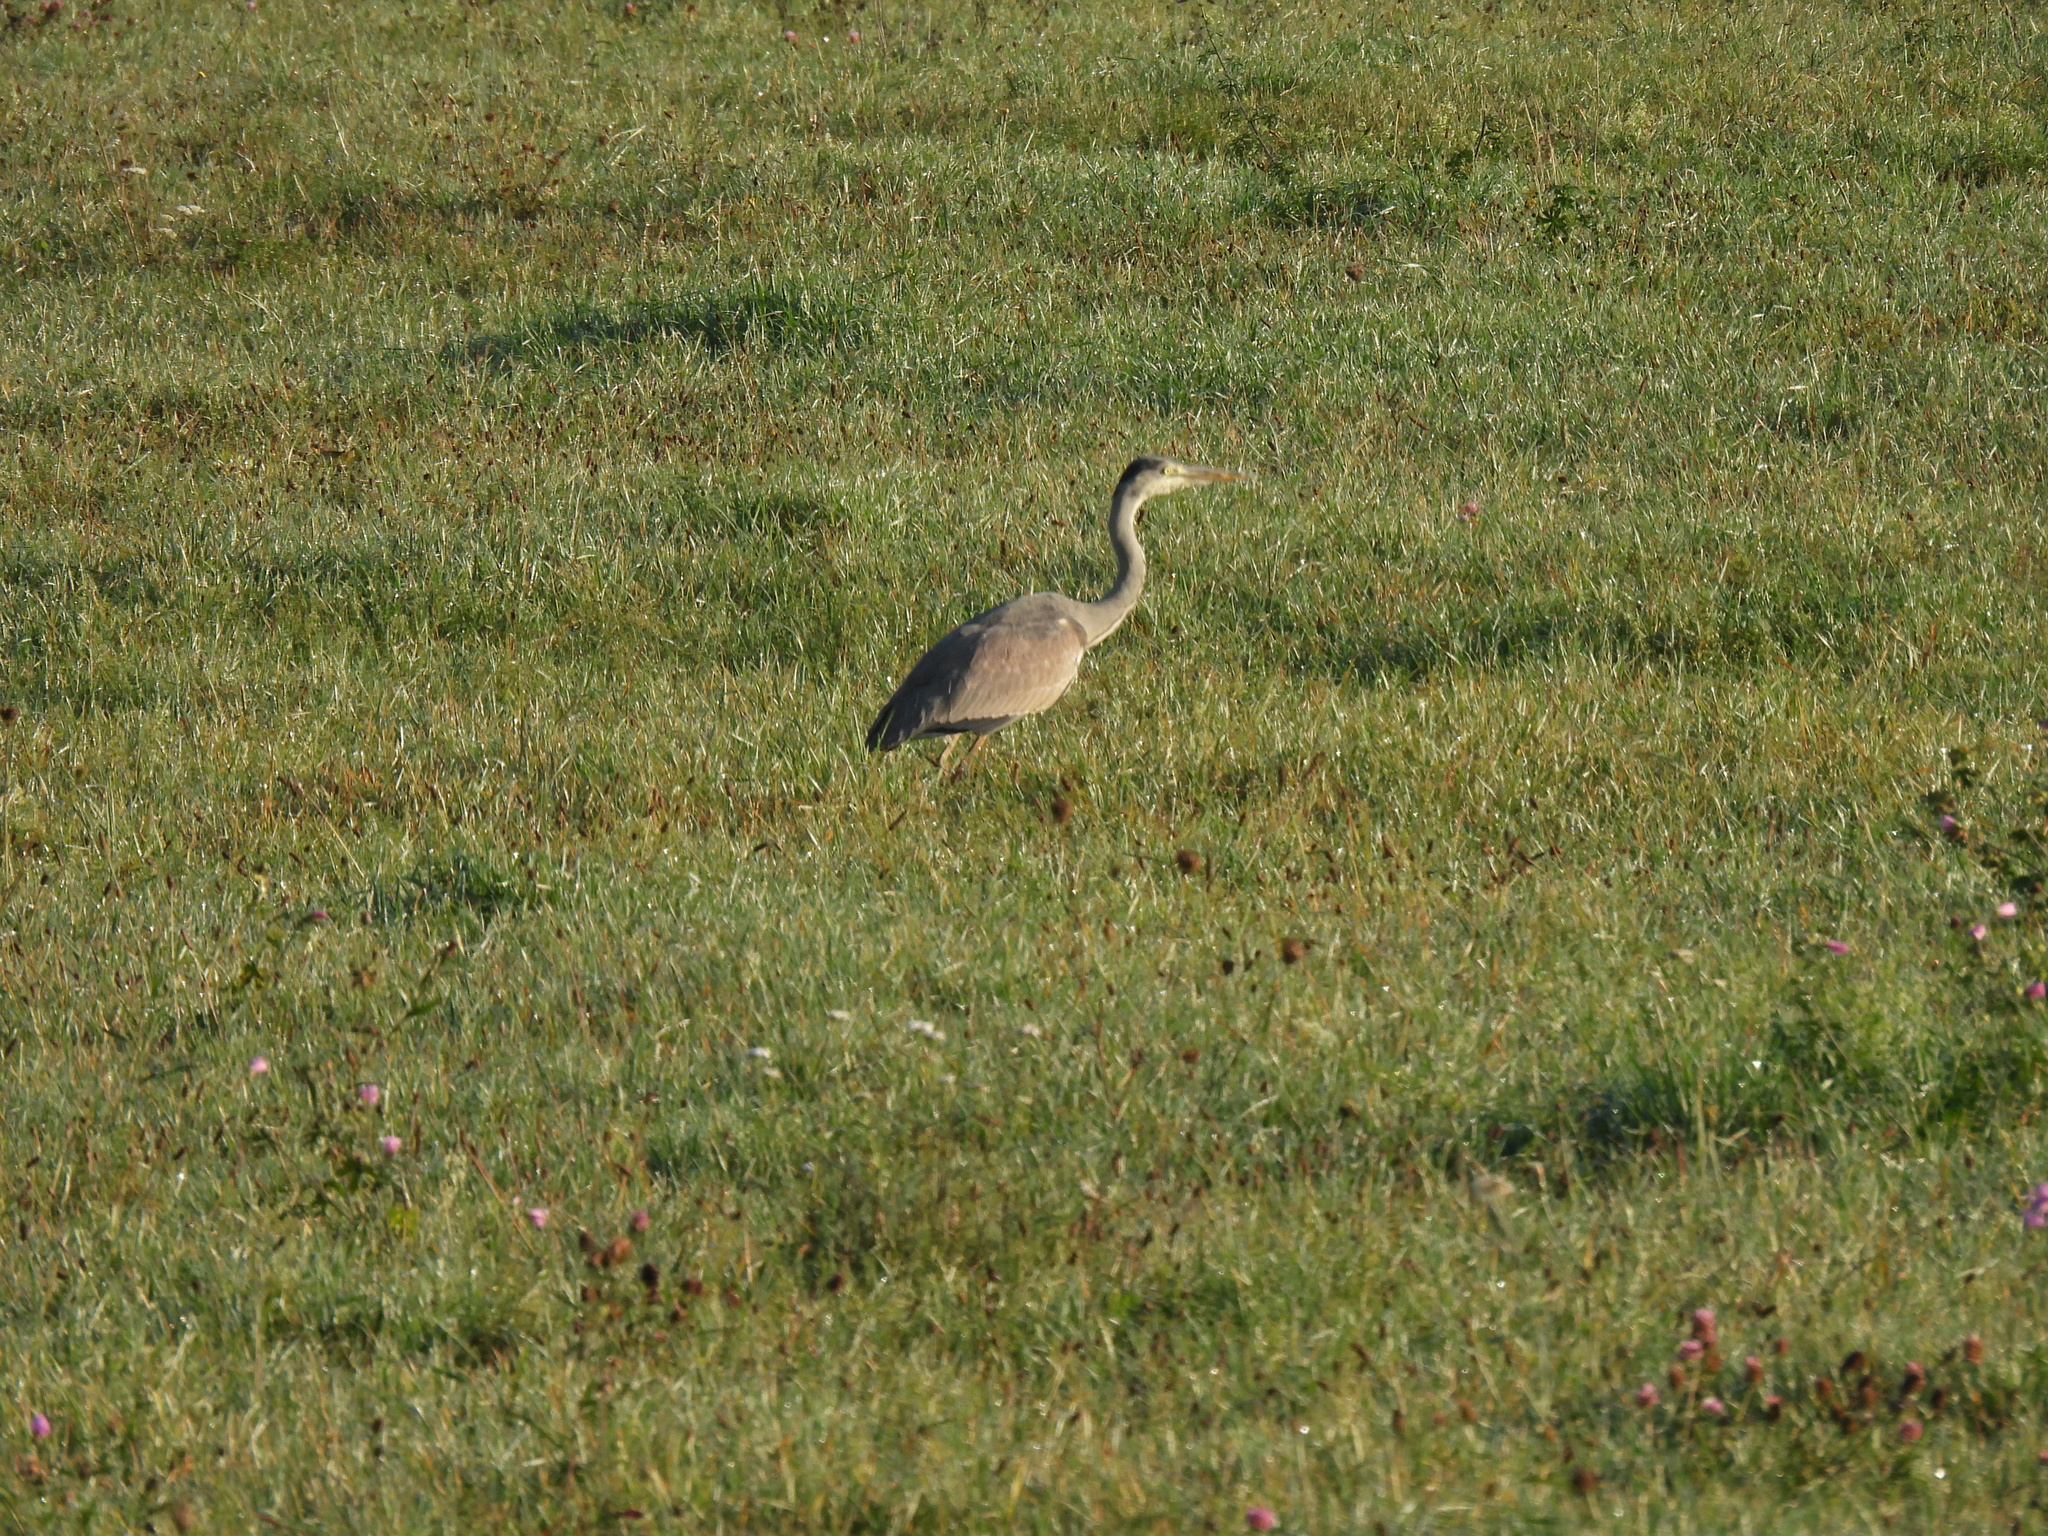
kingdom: Animalia
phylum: Chordata
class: Aves
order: Pelecaniformes
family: Ardeidae
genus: Ardea
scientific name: Ardea cinerea
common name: Grey heron
